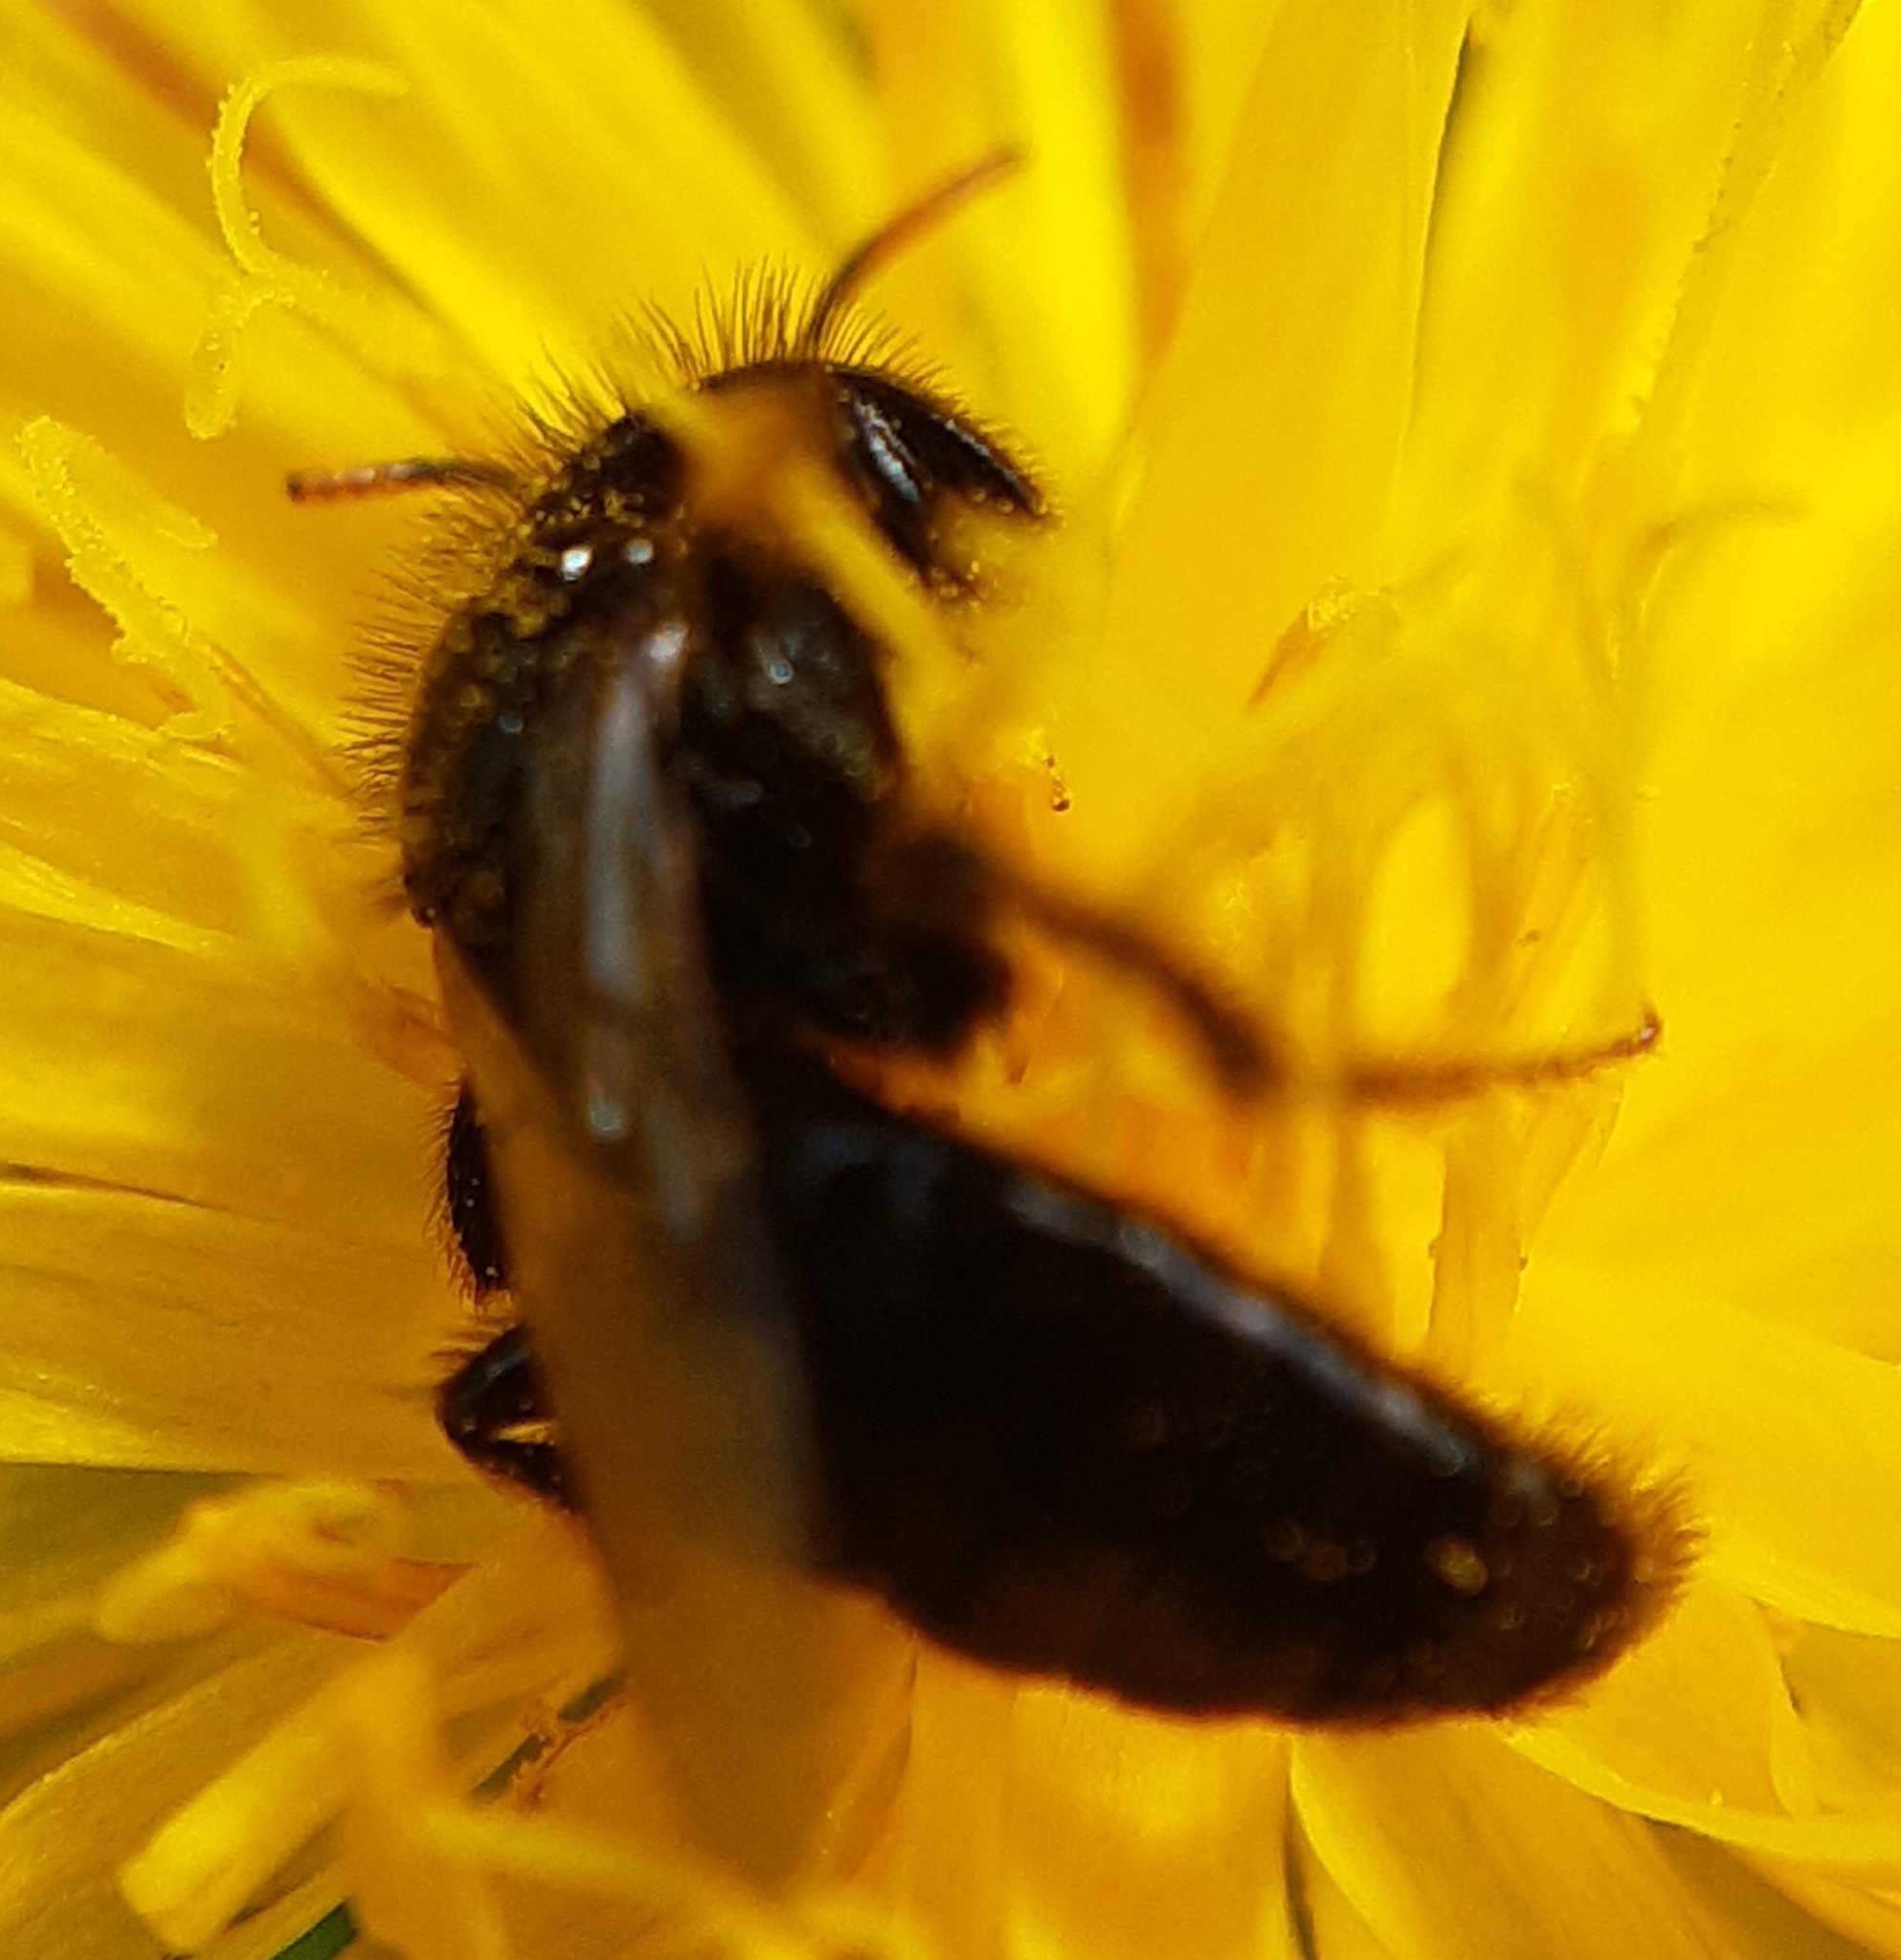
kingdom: Animalia
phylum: Arthropoda
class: Insecta
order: Hymenoptera
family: Andrenidae
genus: Panurgus
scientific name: Panurgus calcaratus
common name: Small shaggy bee
